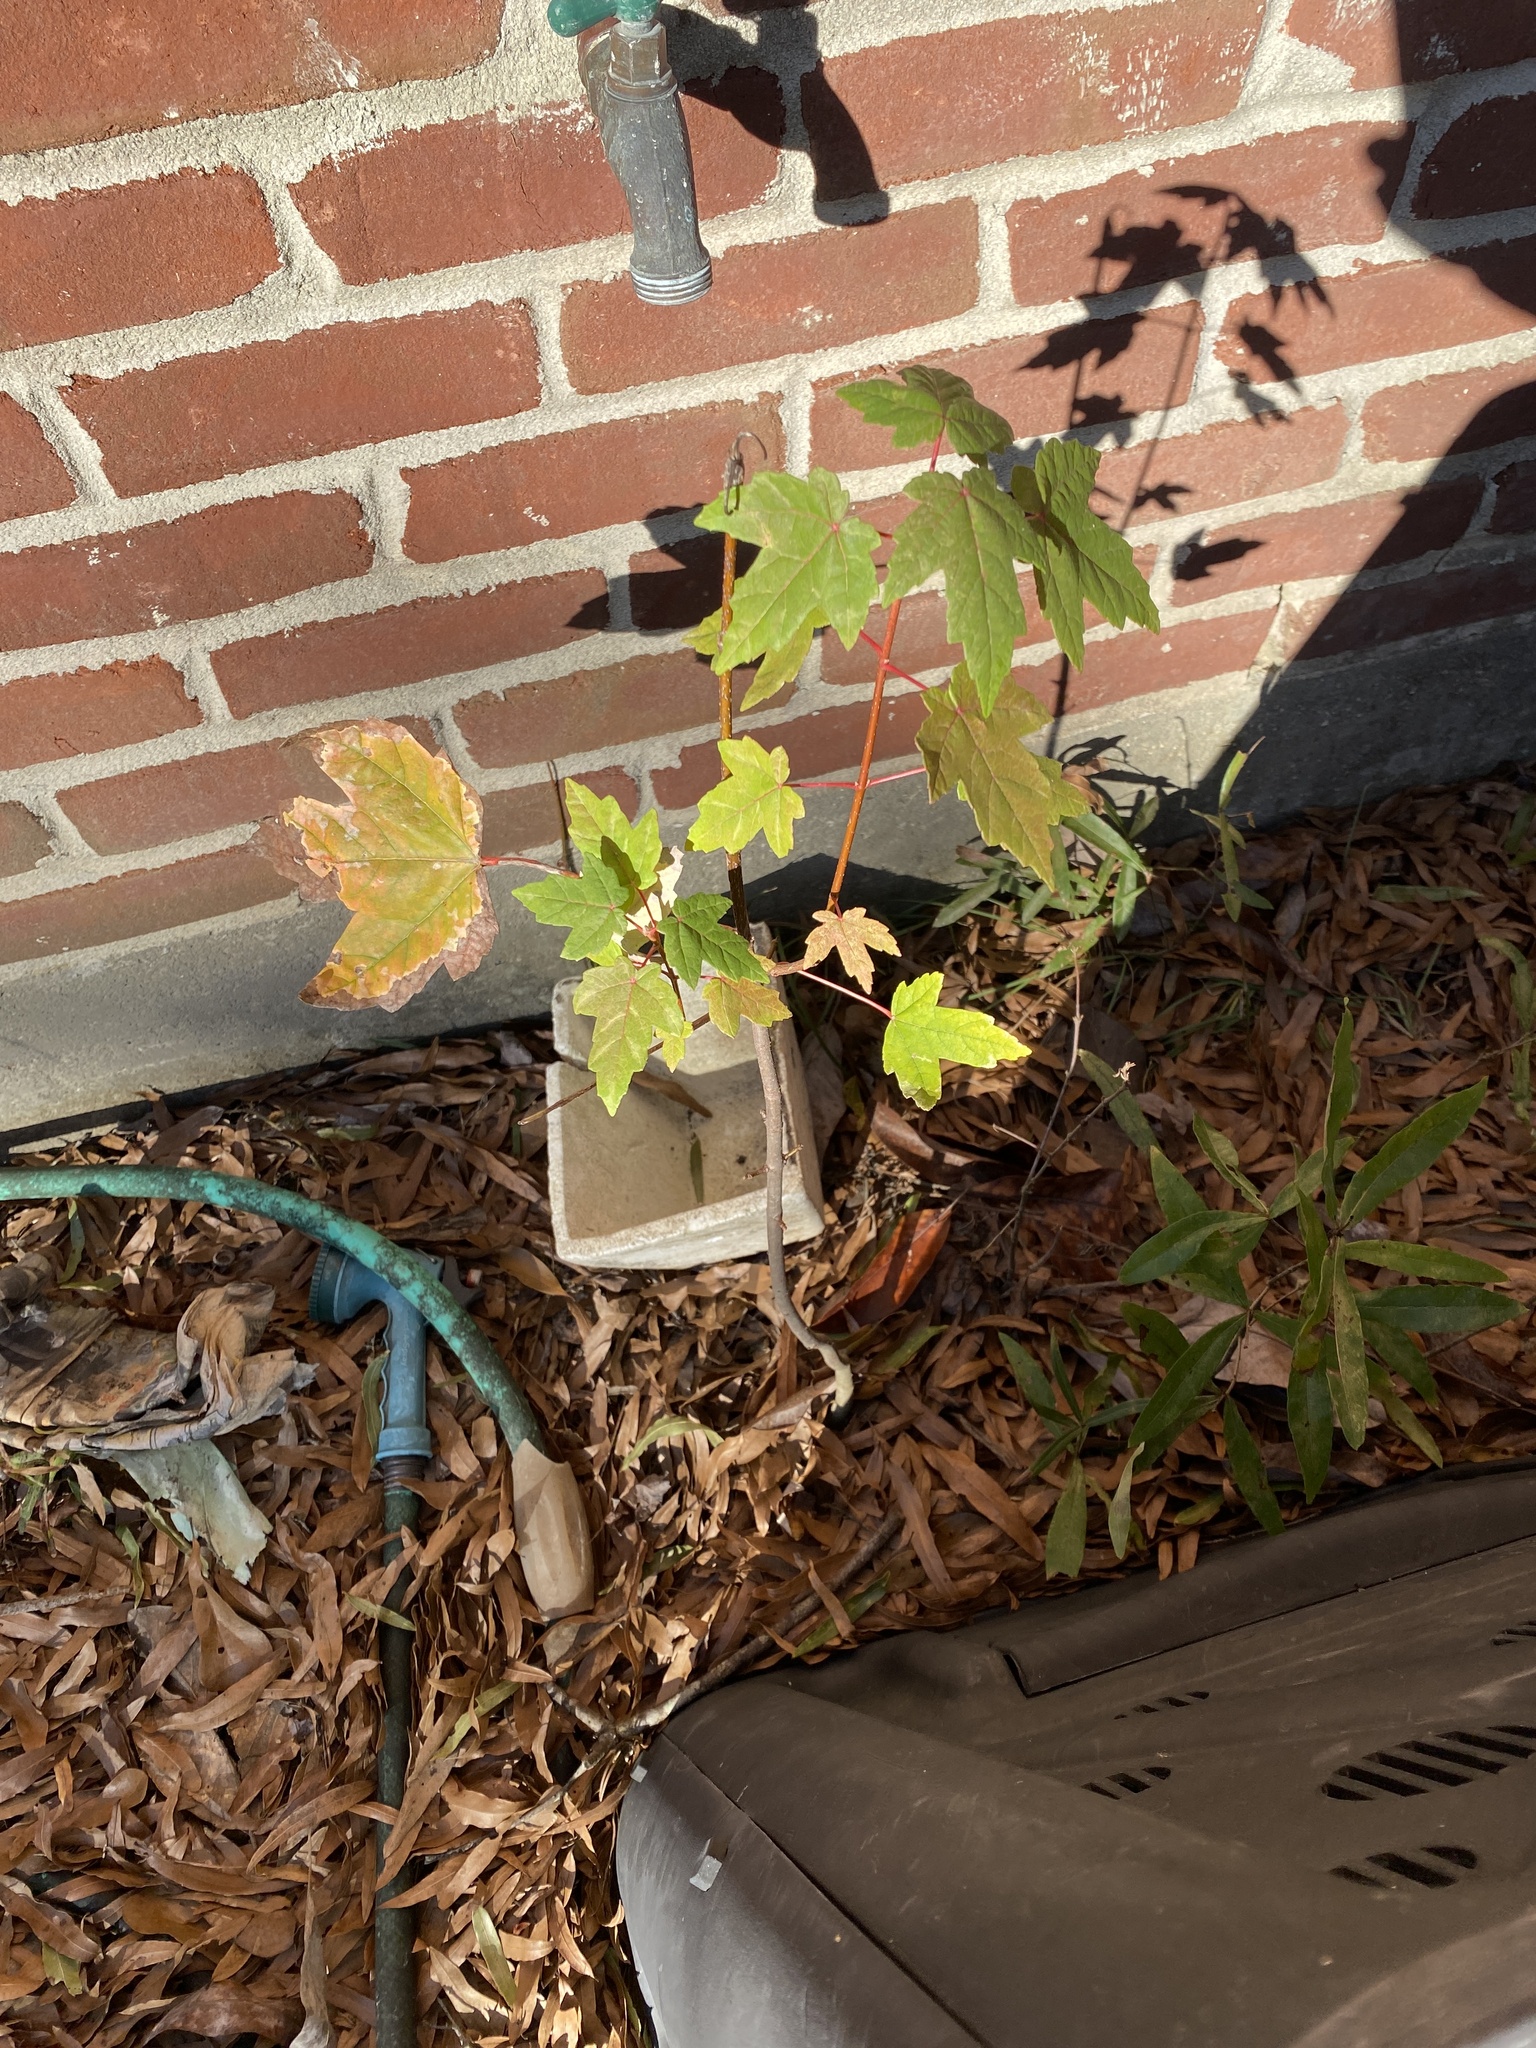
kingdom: Plantae
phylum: Tracheophyta
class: Magnoliopsida
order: Sapindales
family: Sapindaceae
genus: Acer
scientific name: Acer rubrum
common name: Red maple
